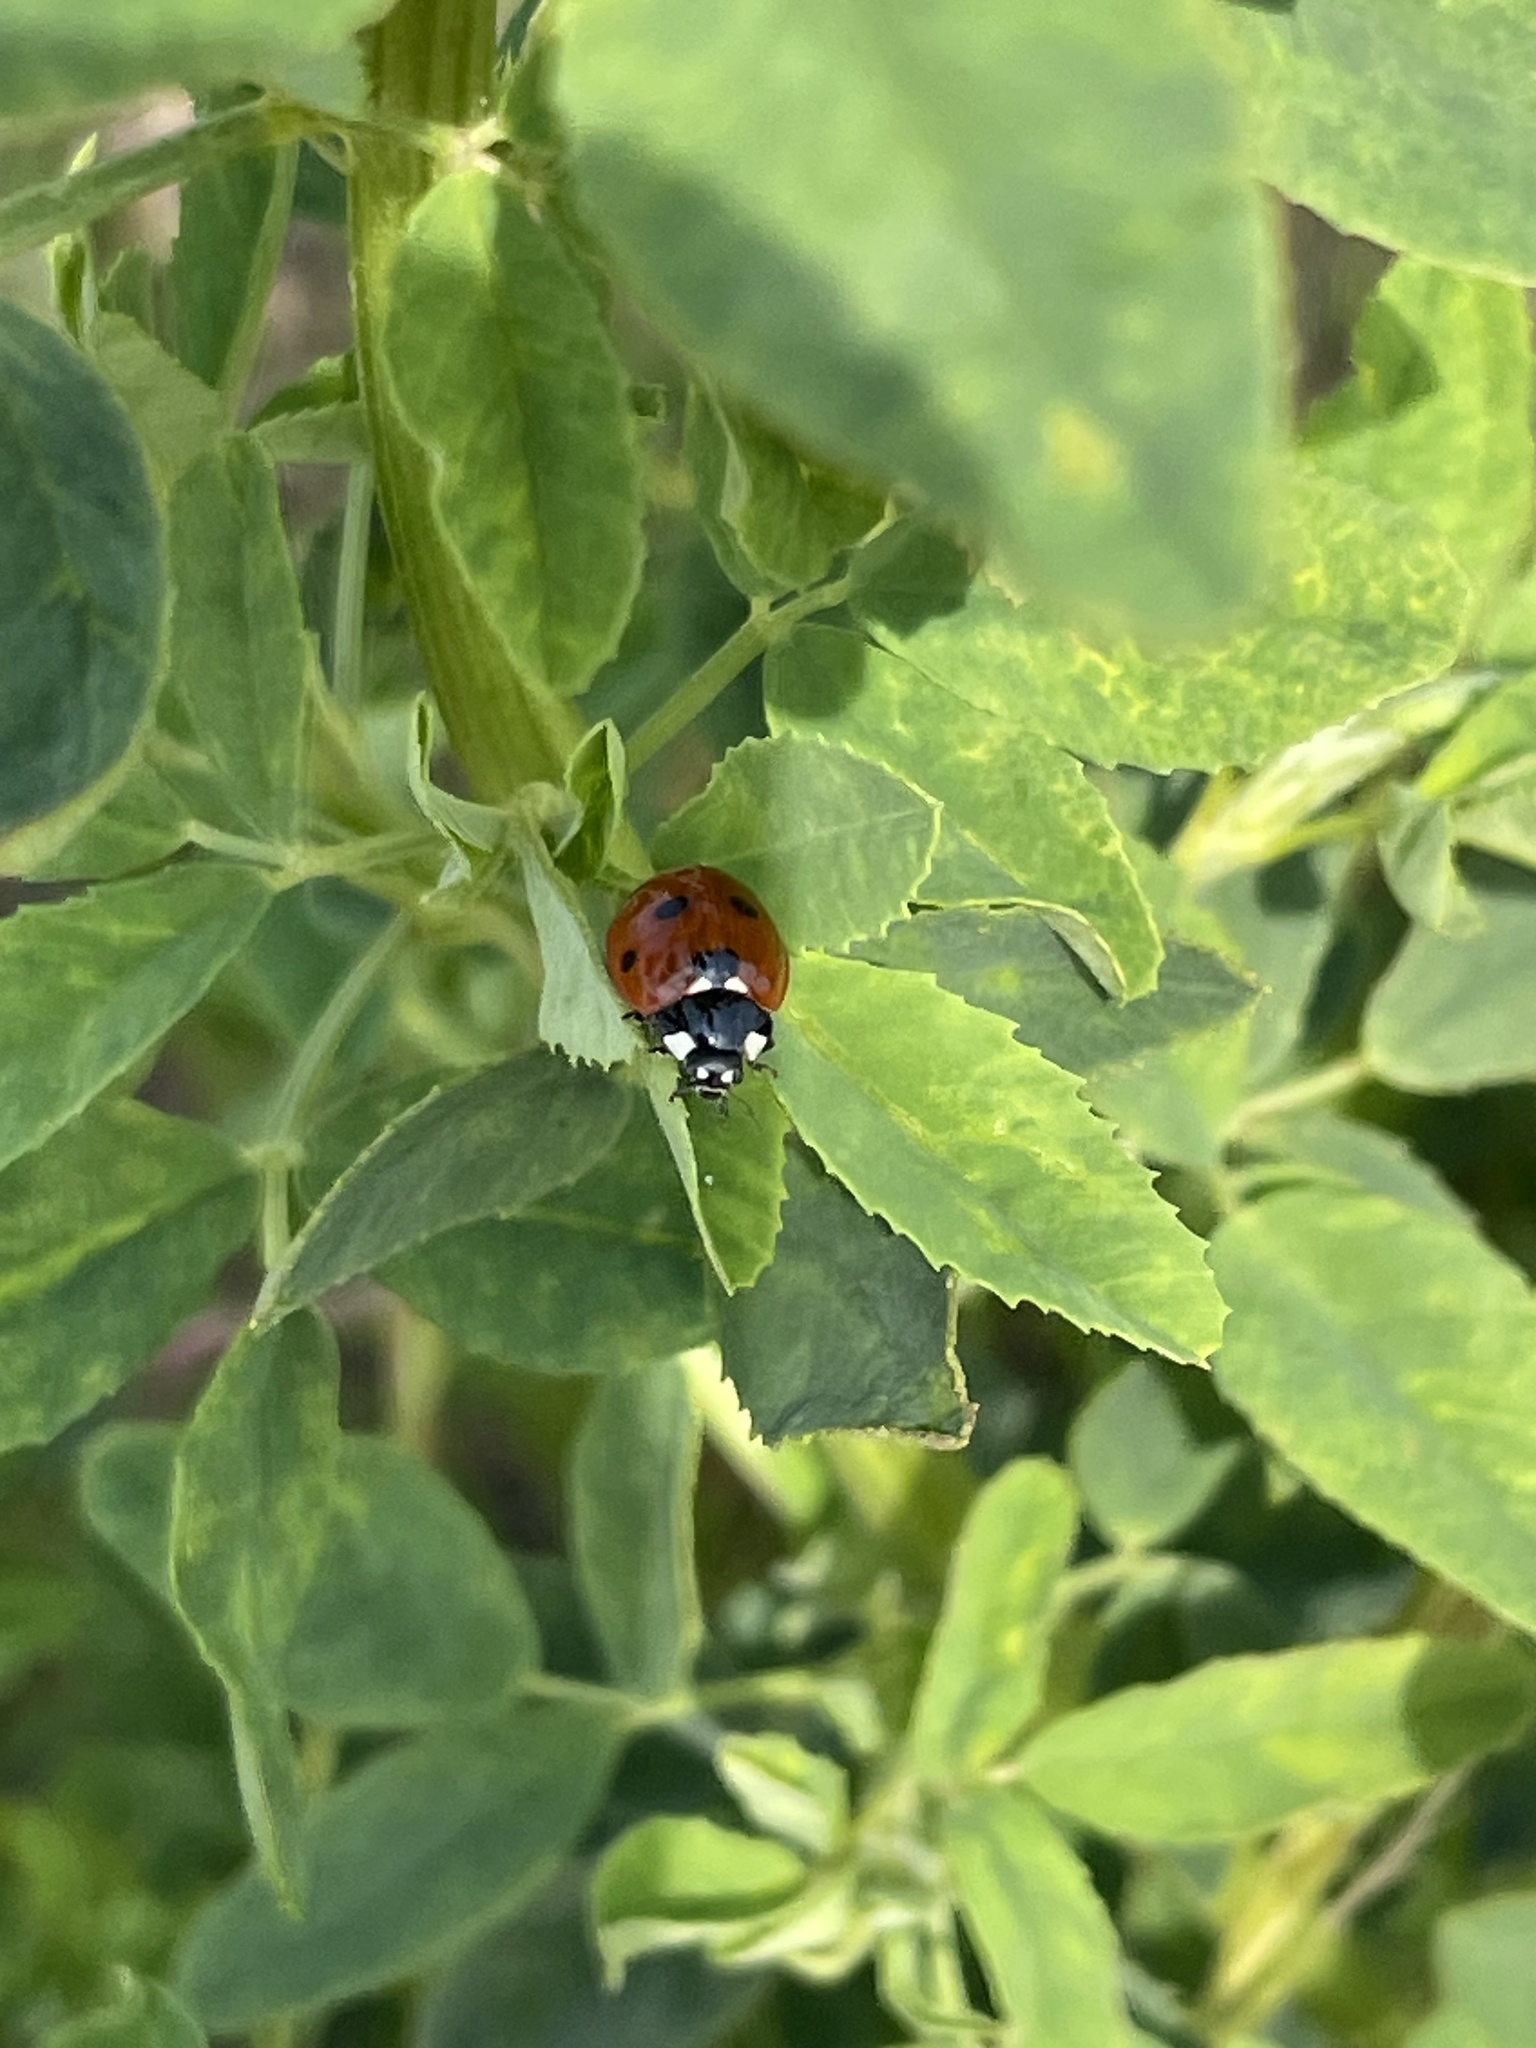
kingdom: Animalia
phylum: Arthropoda
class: Insecta
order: Coleoptera
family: Coccinellidae
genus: Coccinella
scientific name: Coccinella septempunctata
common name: Sevenspotted lady beetle
